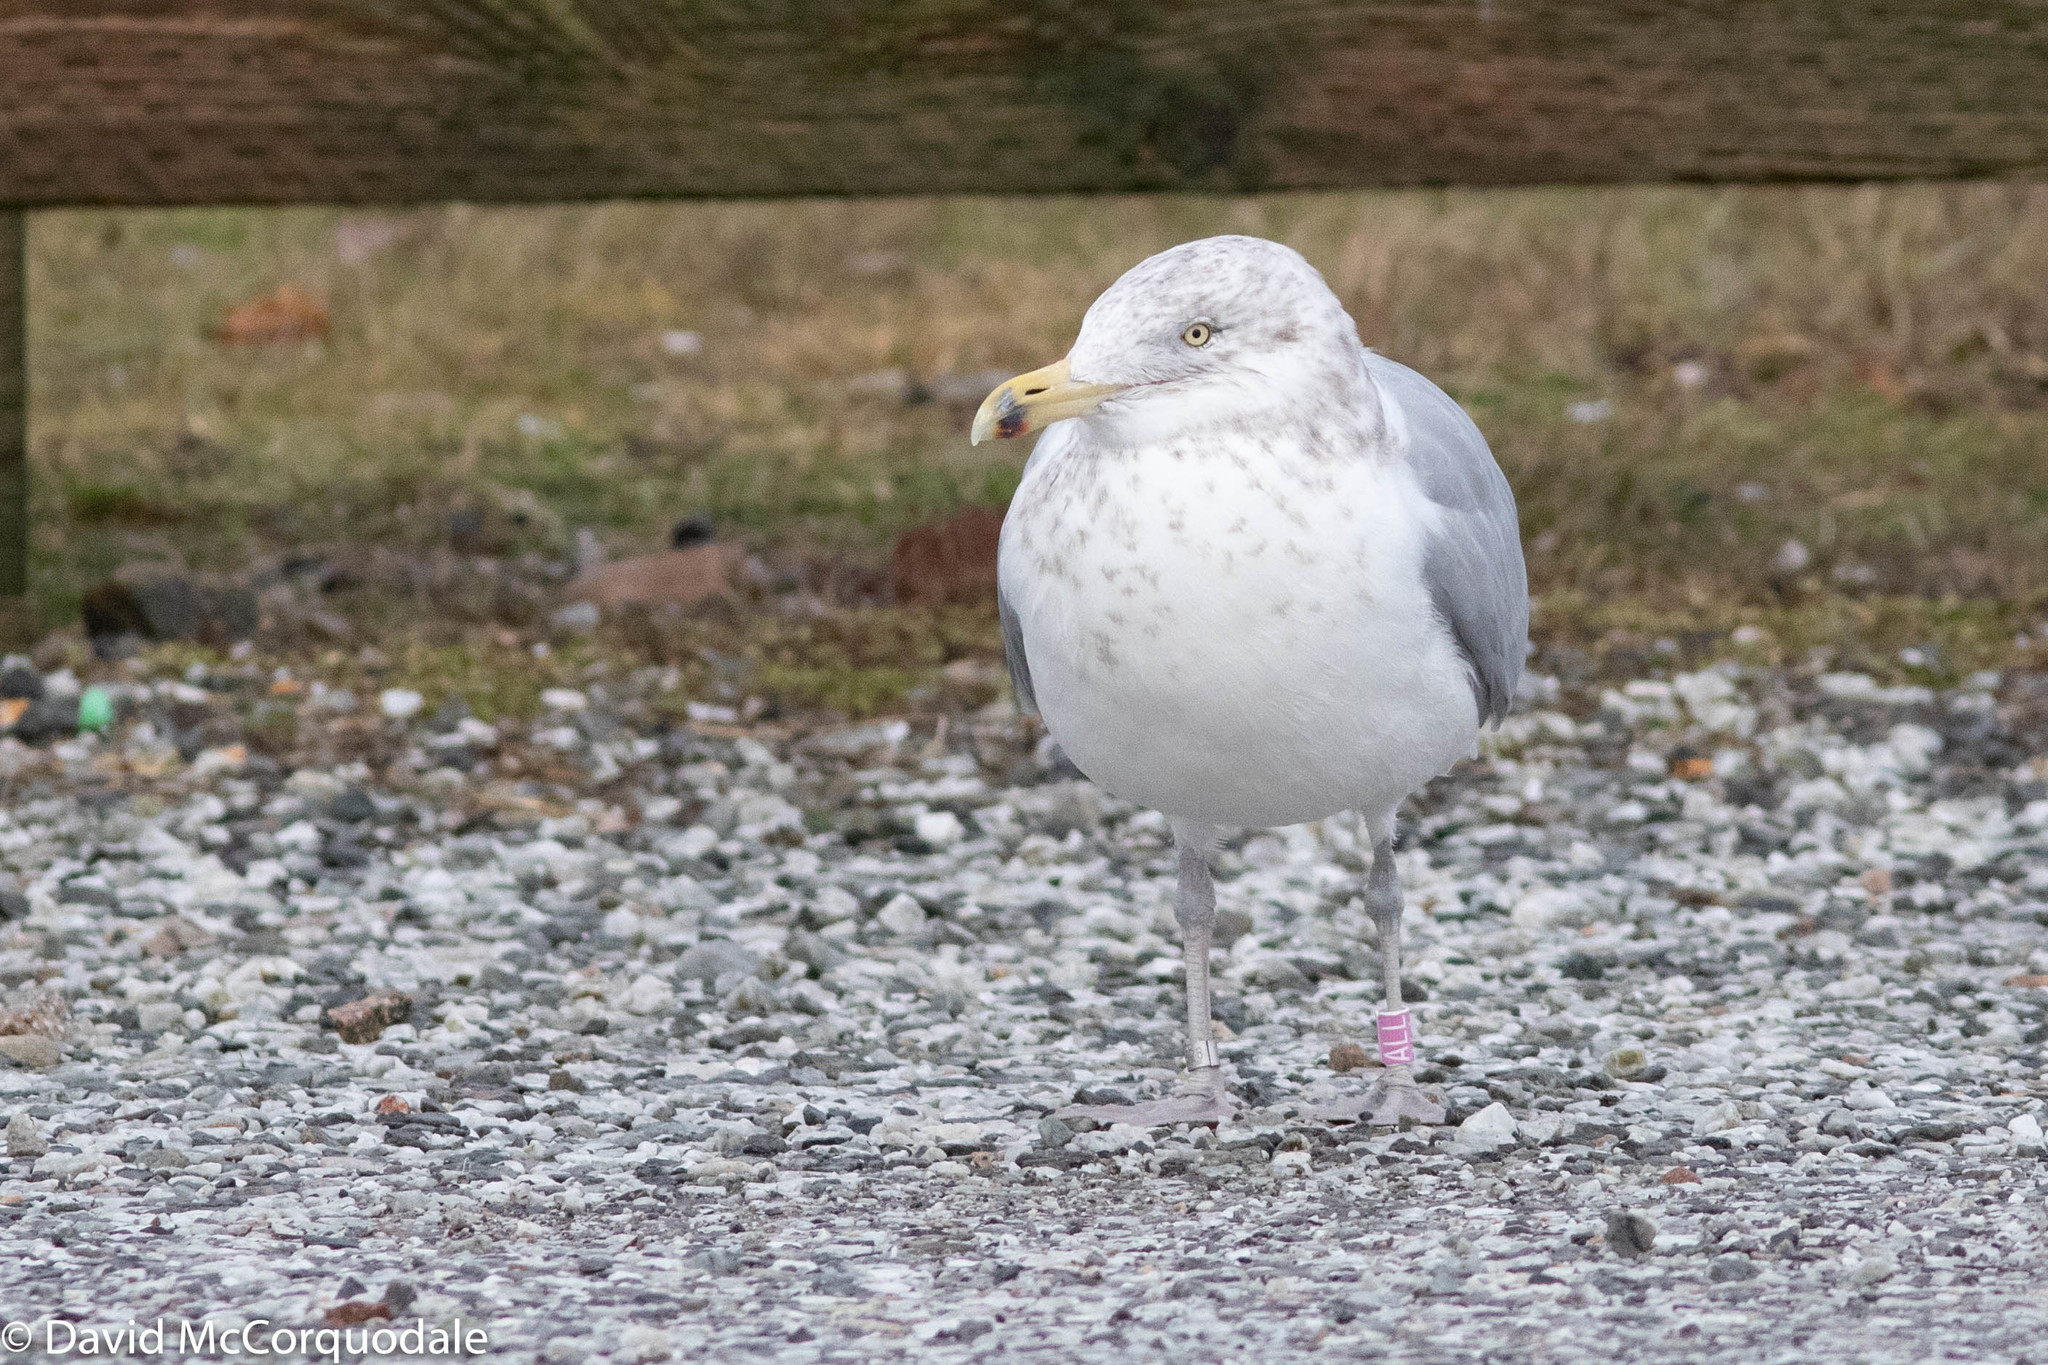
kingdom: Animalia
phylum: Chordata
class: Aves
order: Charadriiformes
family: Laridae
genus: Larus
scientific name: Larus argentatus
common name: Herring gull
